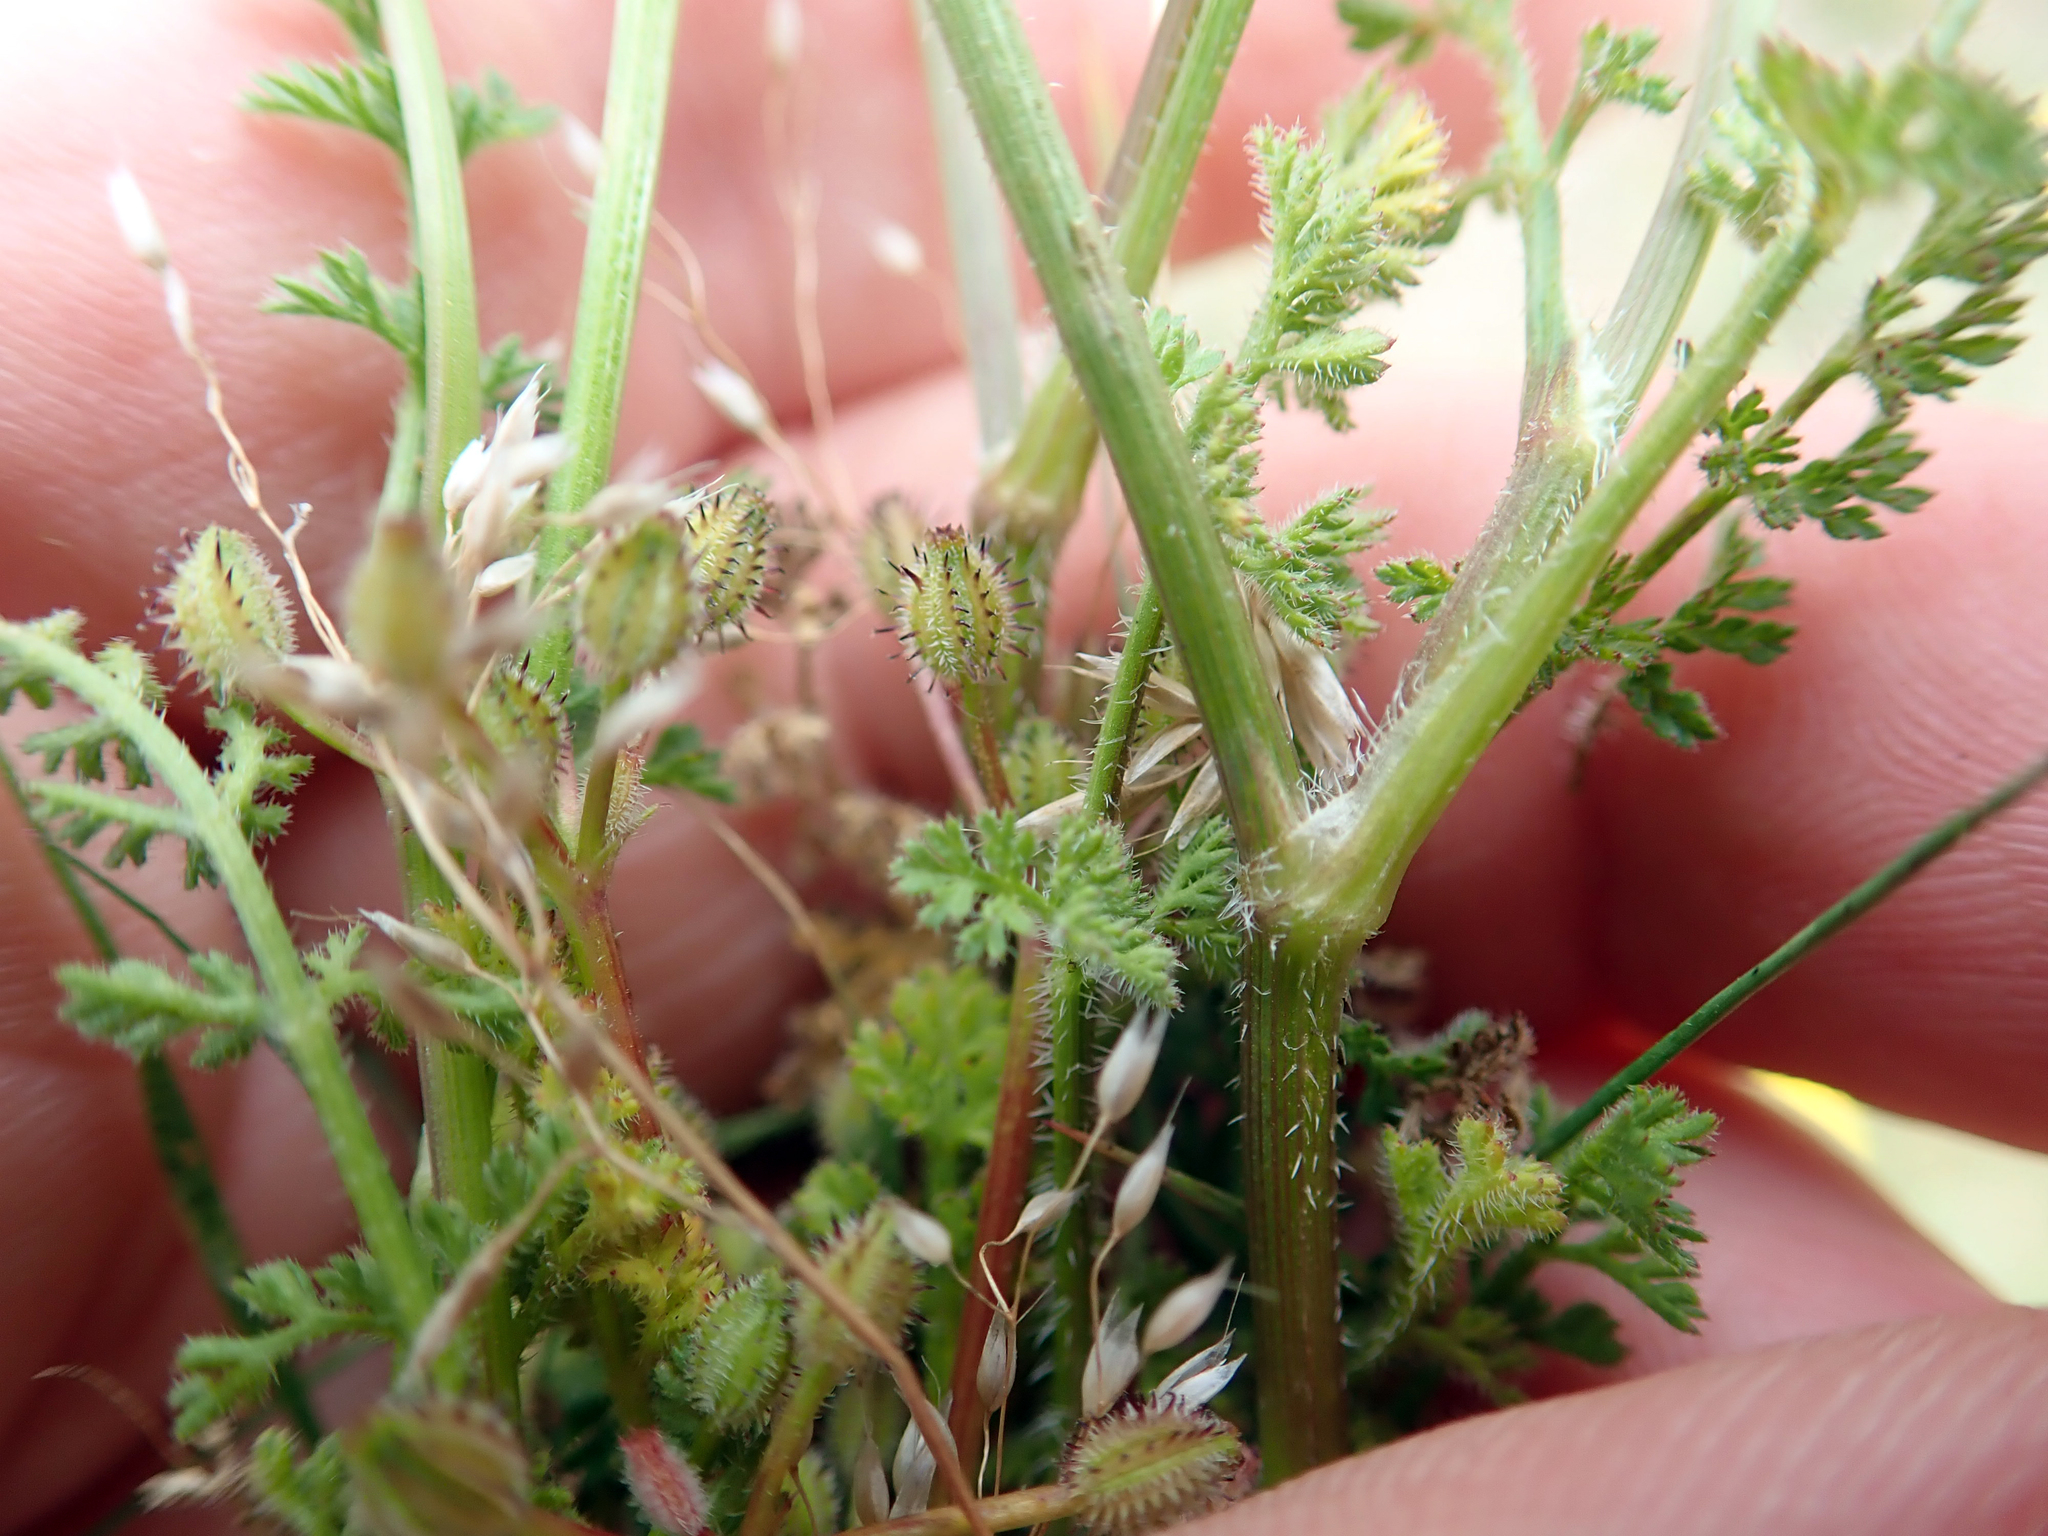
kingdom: Plantae
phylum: Tracheophyta
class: Magnoliopsida
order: Apiales
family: Apiaceae
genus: Daucus
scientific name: Daucus glochidiatus
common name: Australian carrot
